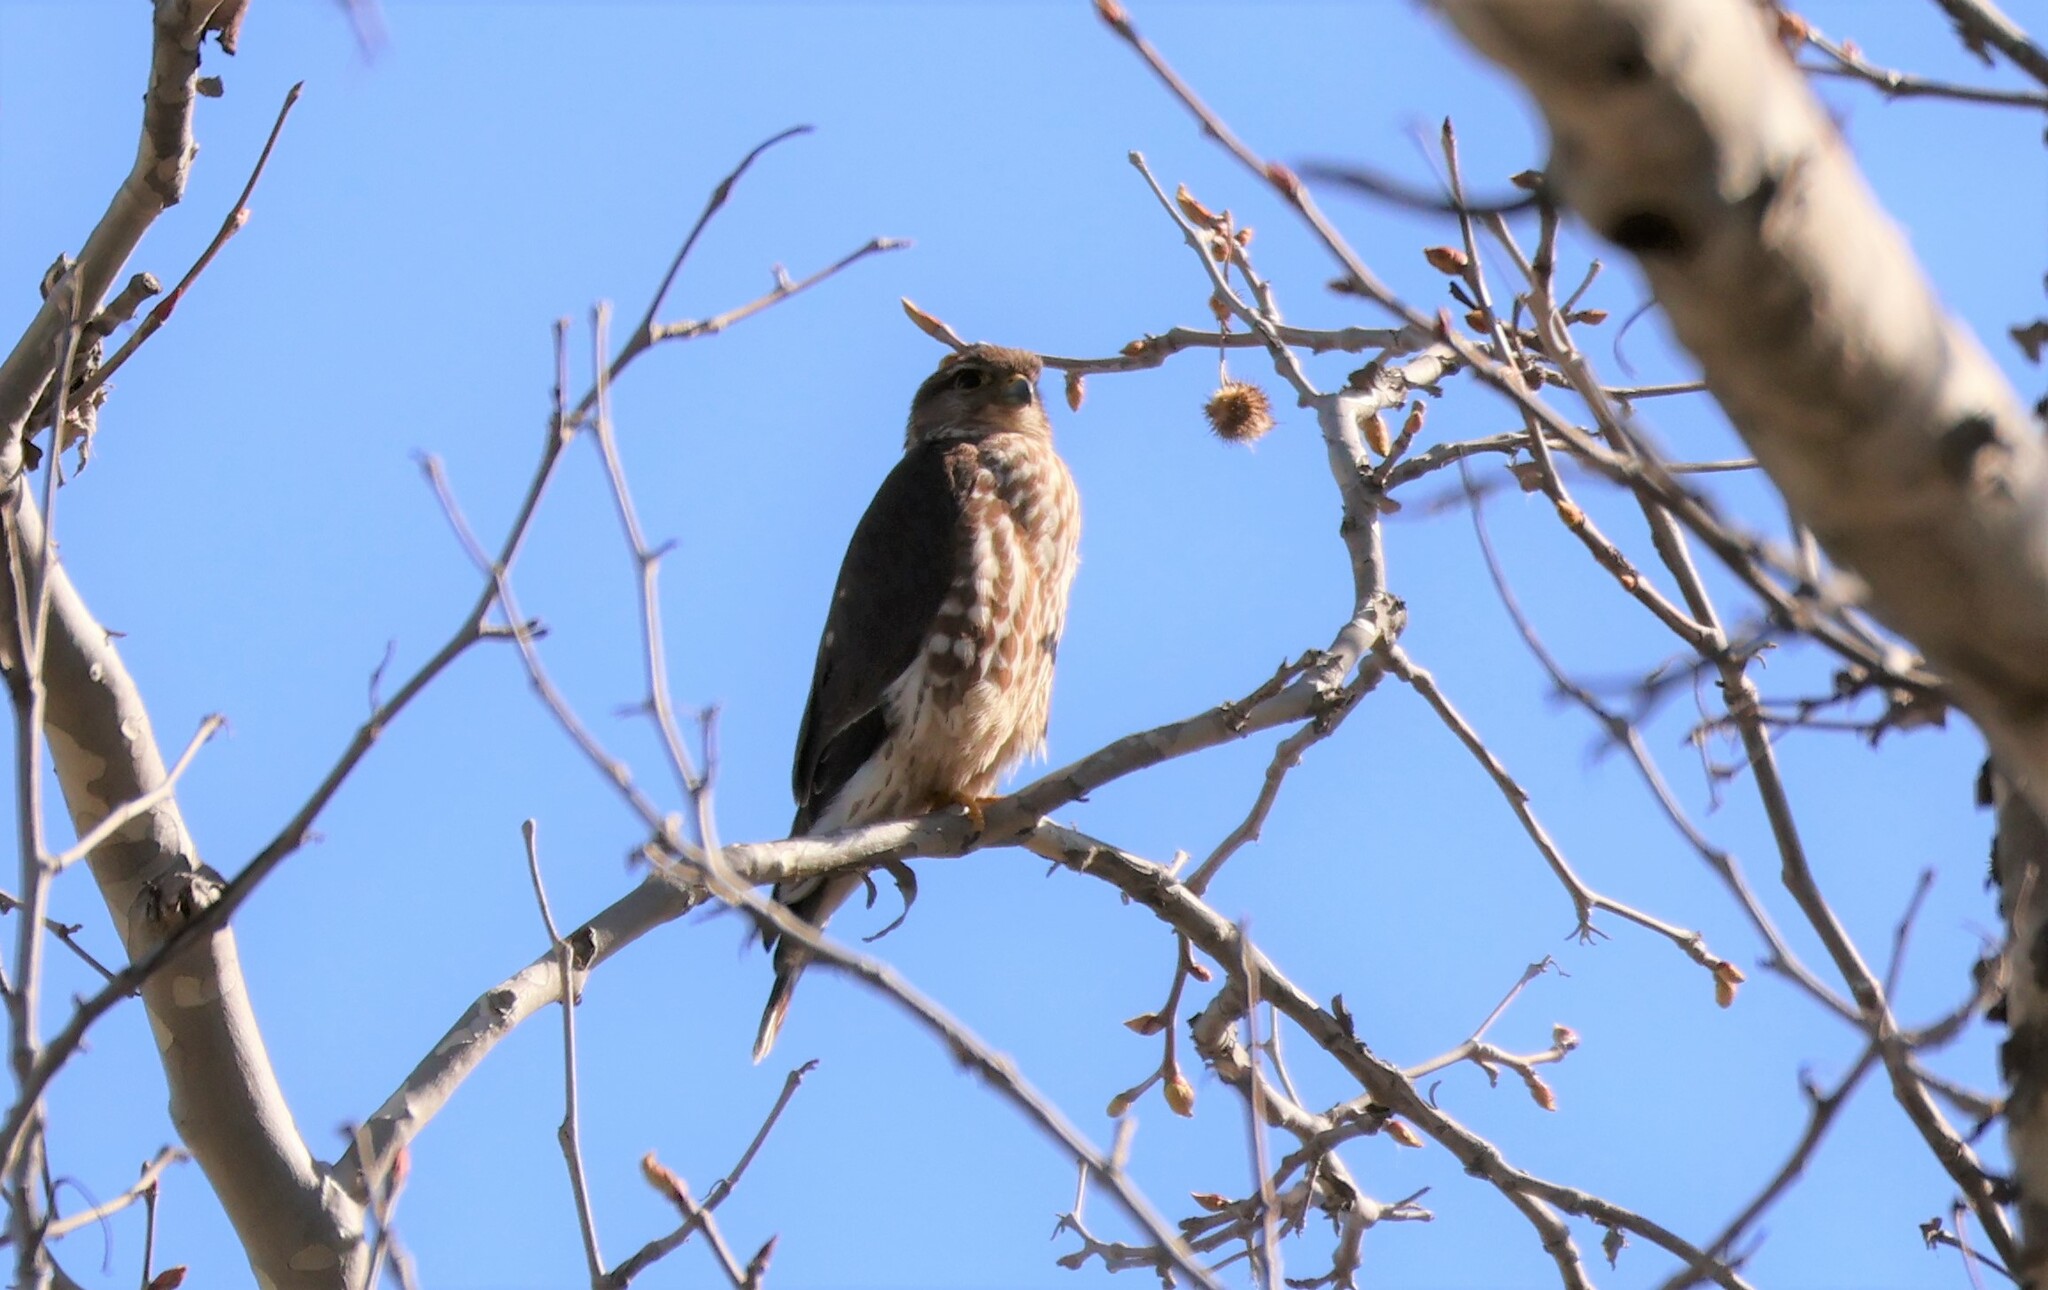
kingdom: Animalia
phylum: Chordata
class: Aves
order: Falconiformes
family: Falconidae
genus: Falco
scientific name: Falco columbarius
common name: Merlin
